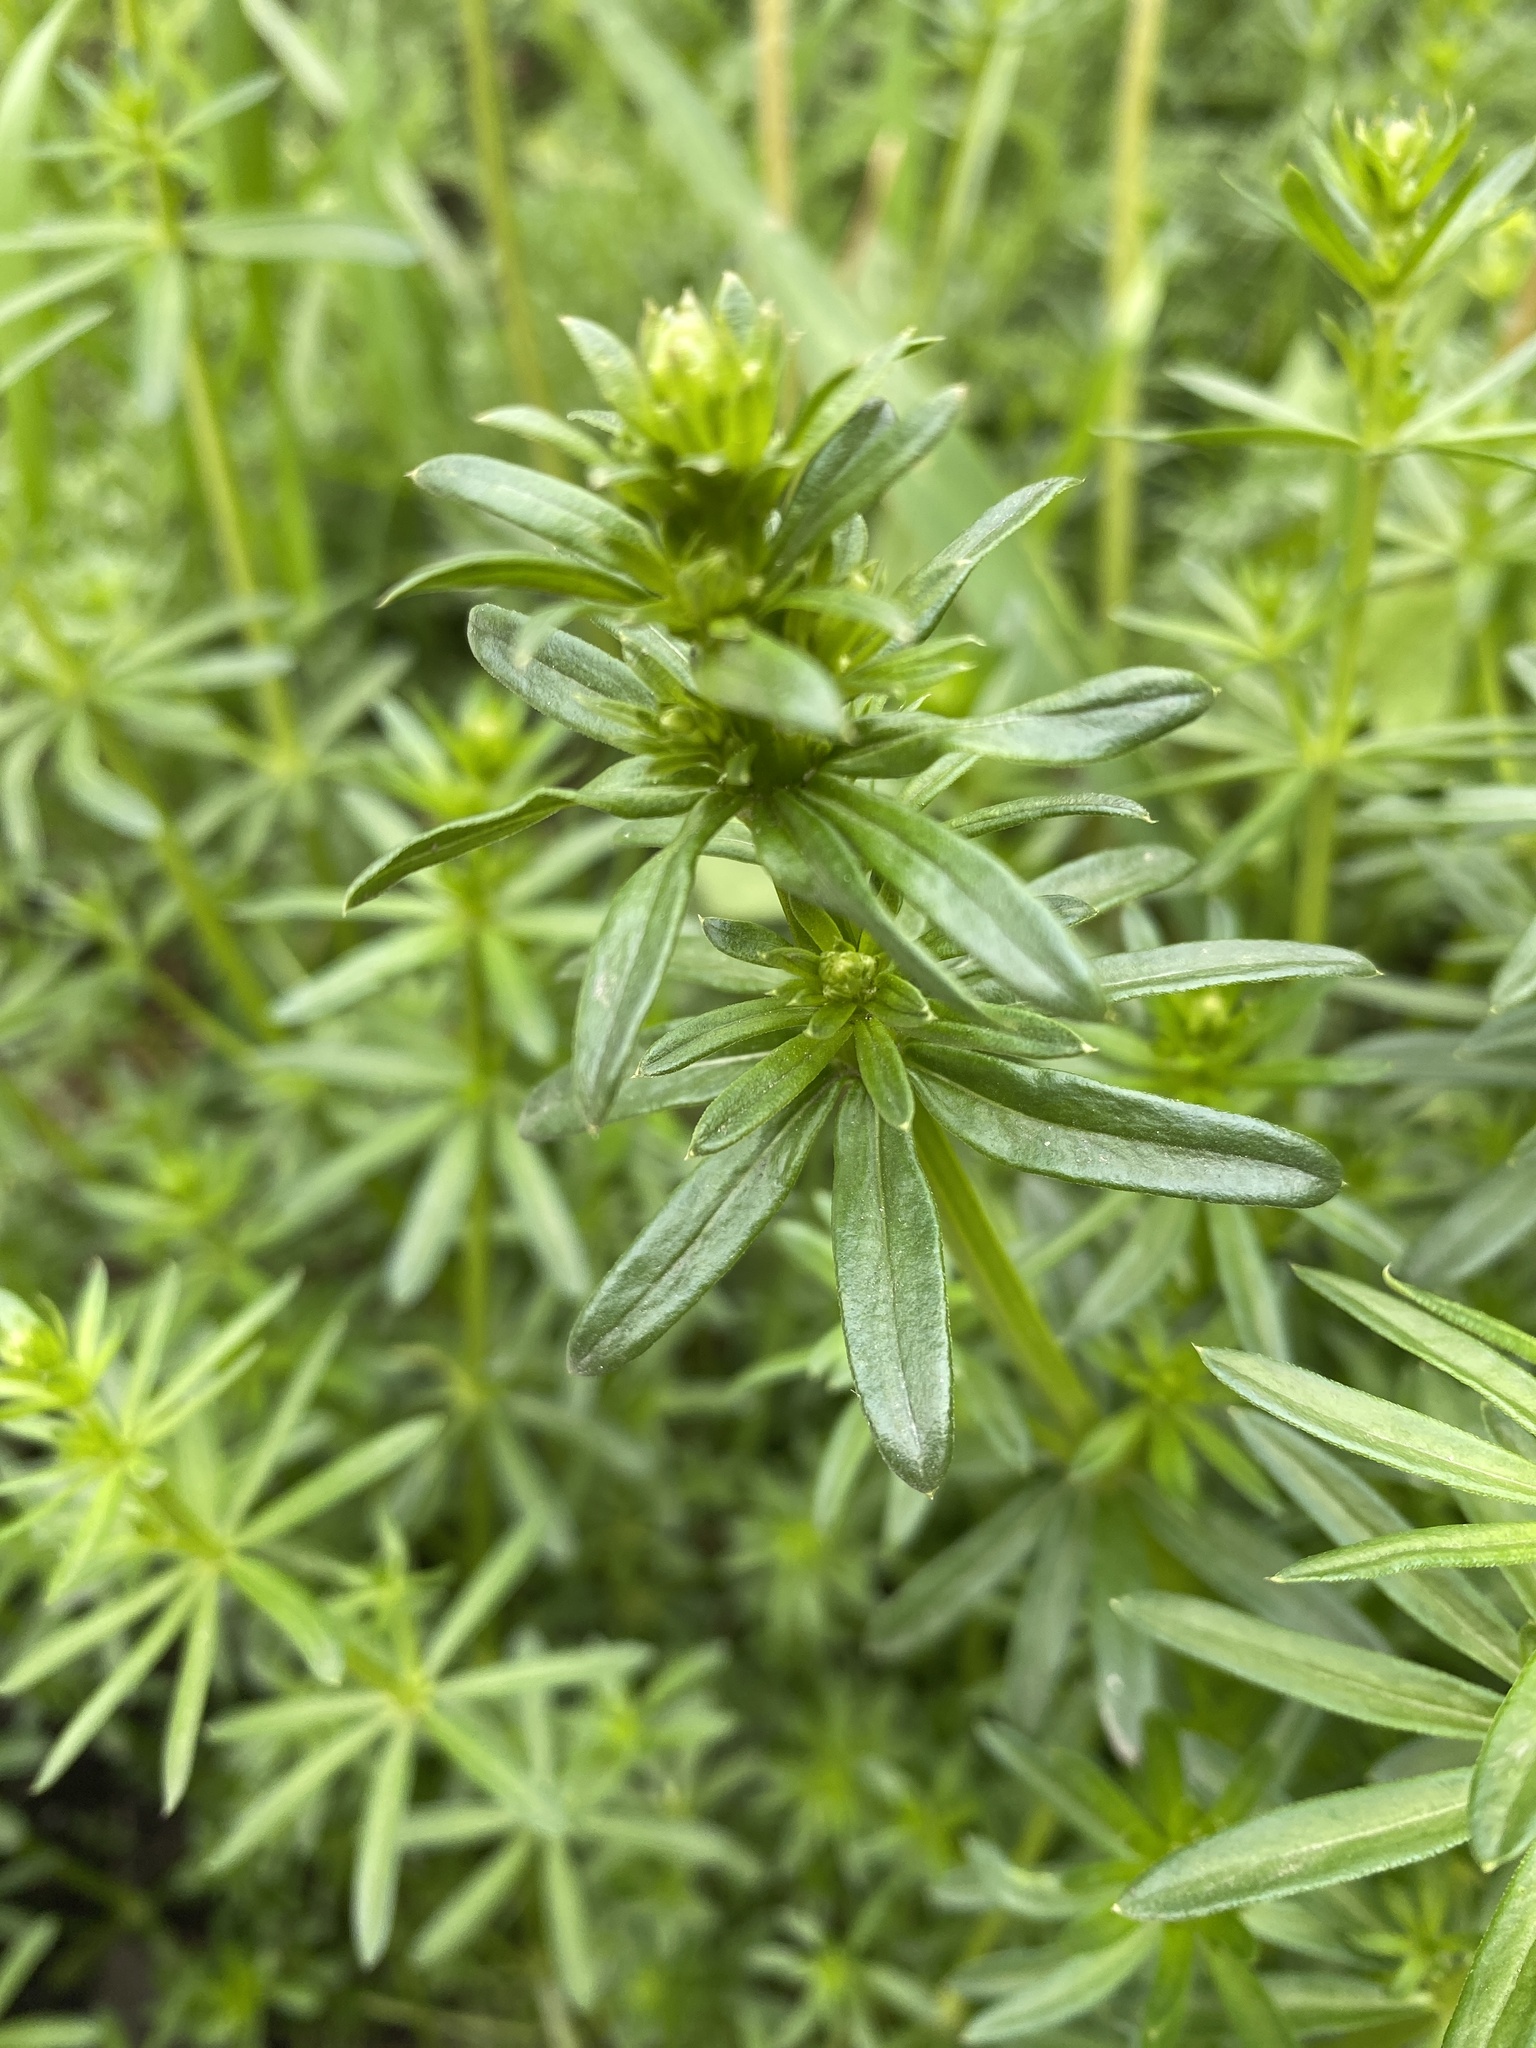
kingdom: Plantae
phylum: Tracheophyta
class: Magnoliopsida
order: Gentianales
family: Rubiaceae
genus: Galium
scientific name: Galium mollugo
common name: Hedge bedstraw
